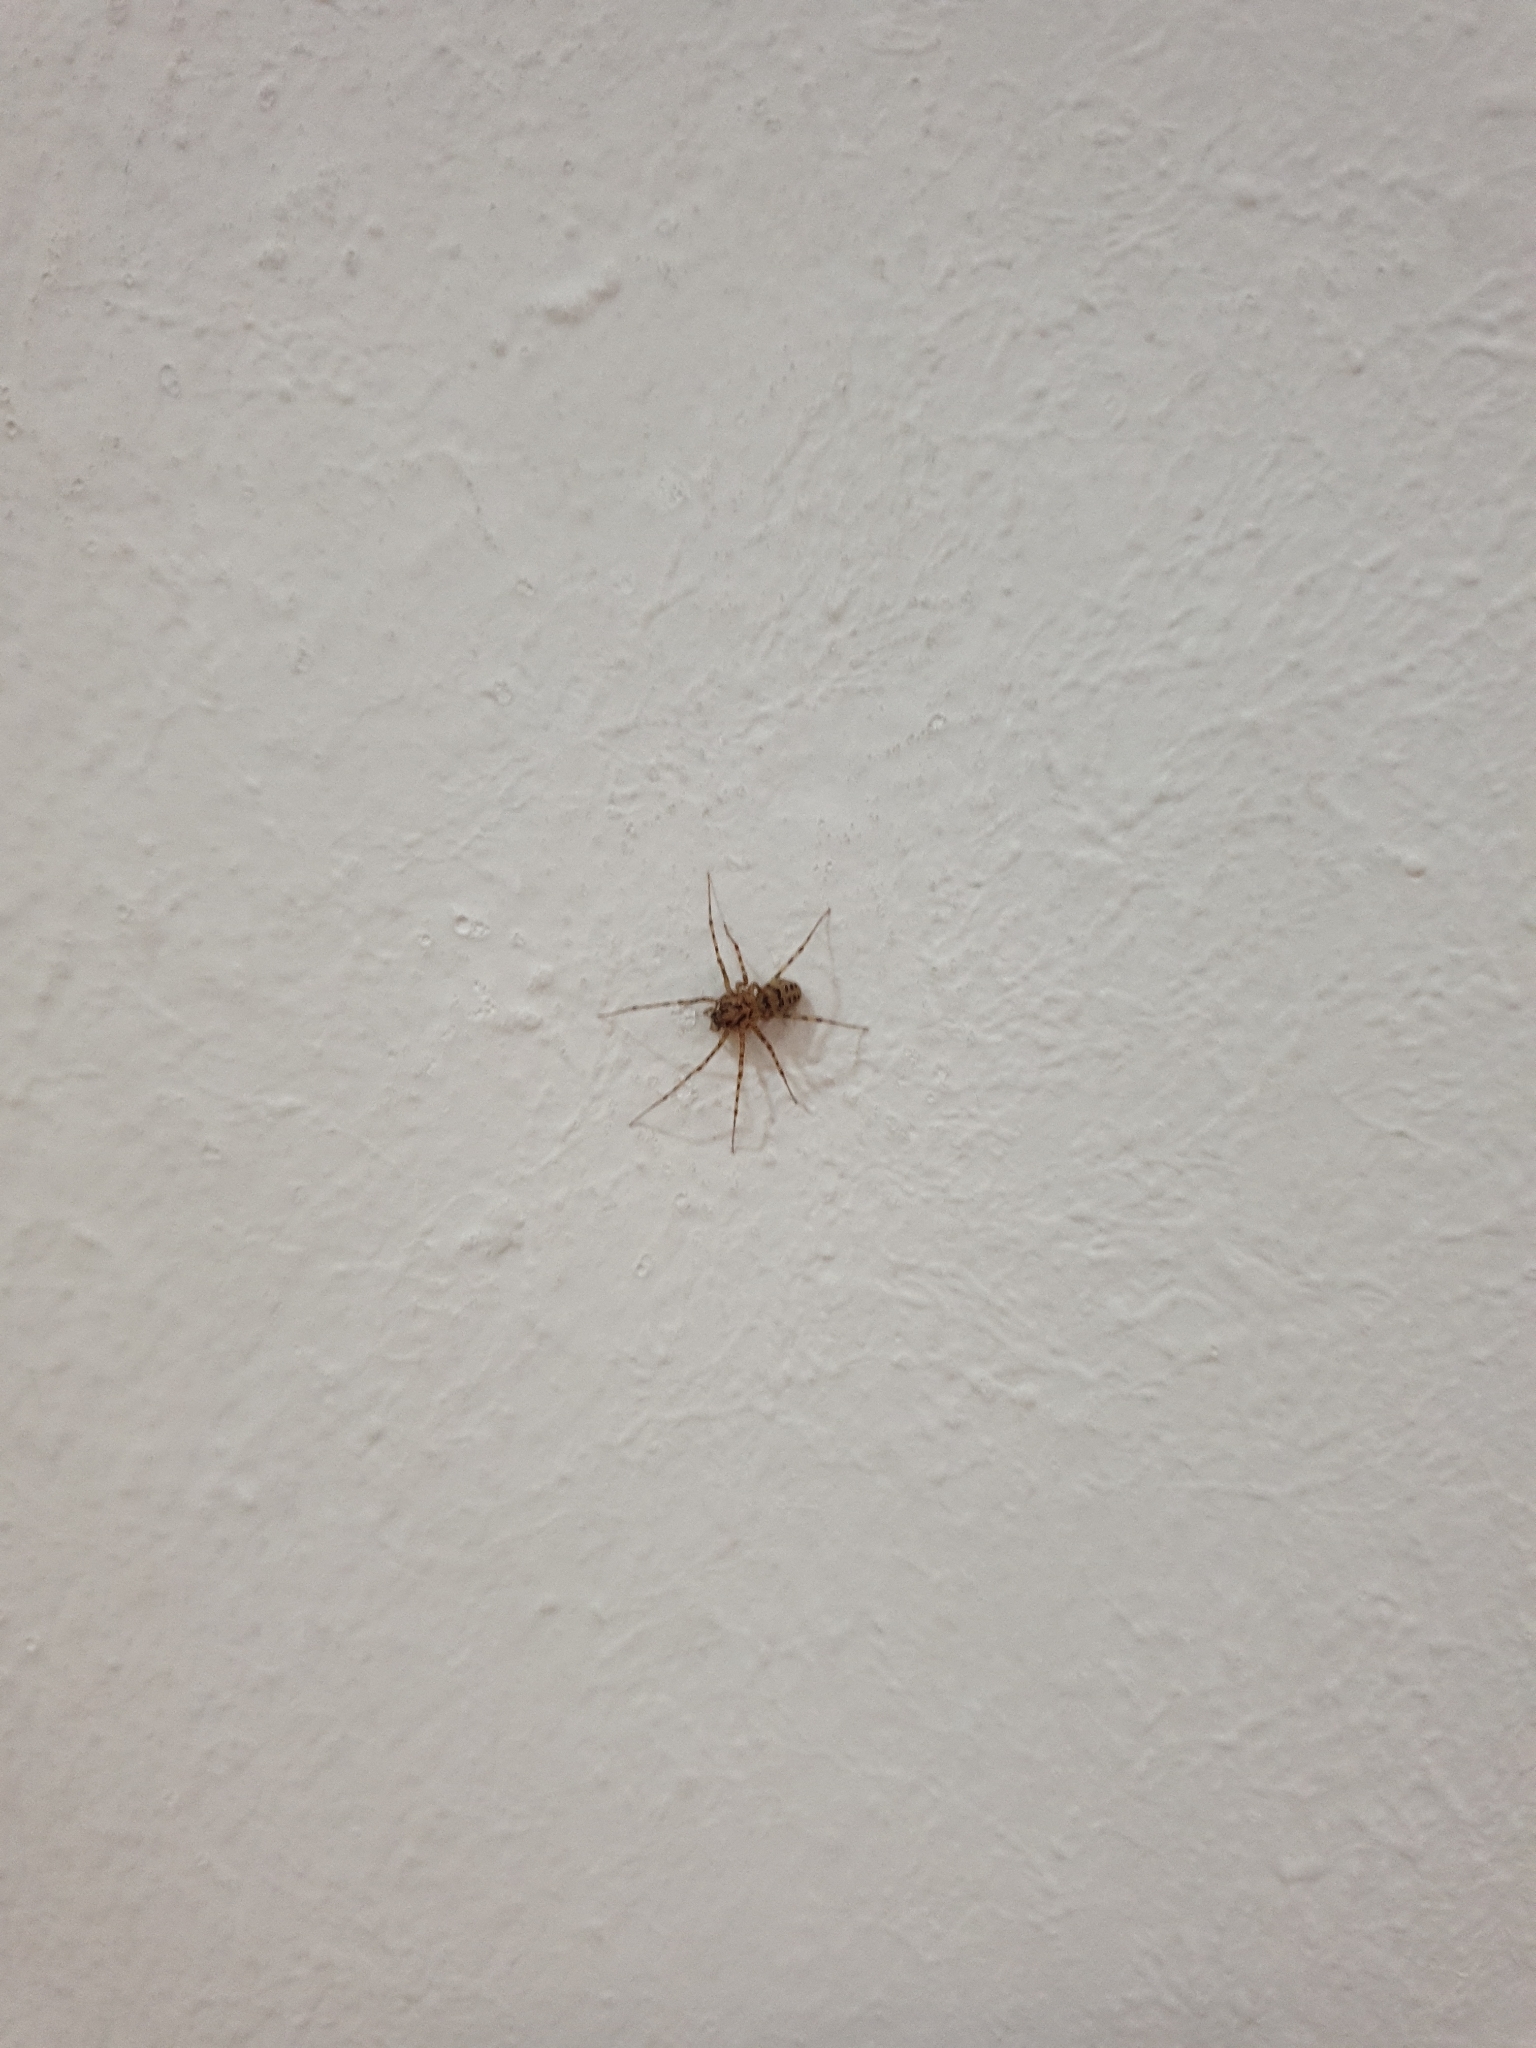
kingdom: Animalia
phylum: Arthropoda
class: Arachnida
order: Araneae
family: Scytodidae
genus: Scytodes
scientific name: Scytodes thoracica
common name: Spitting spider
